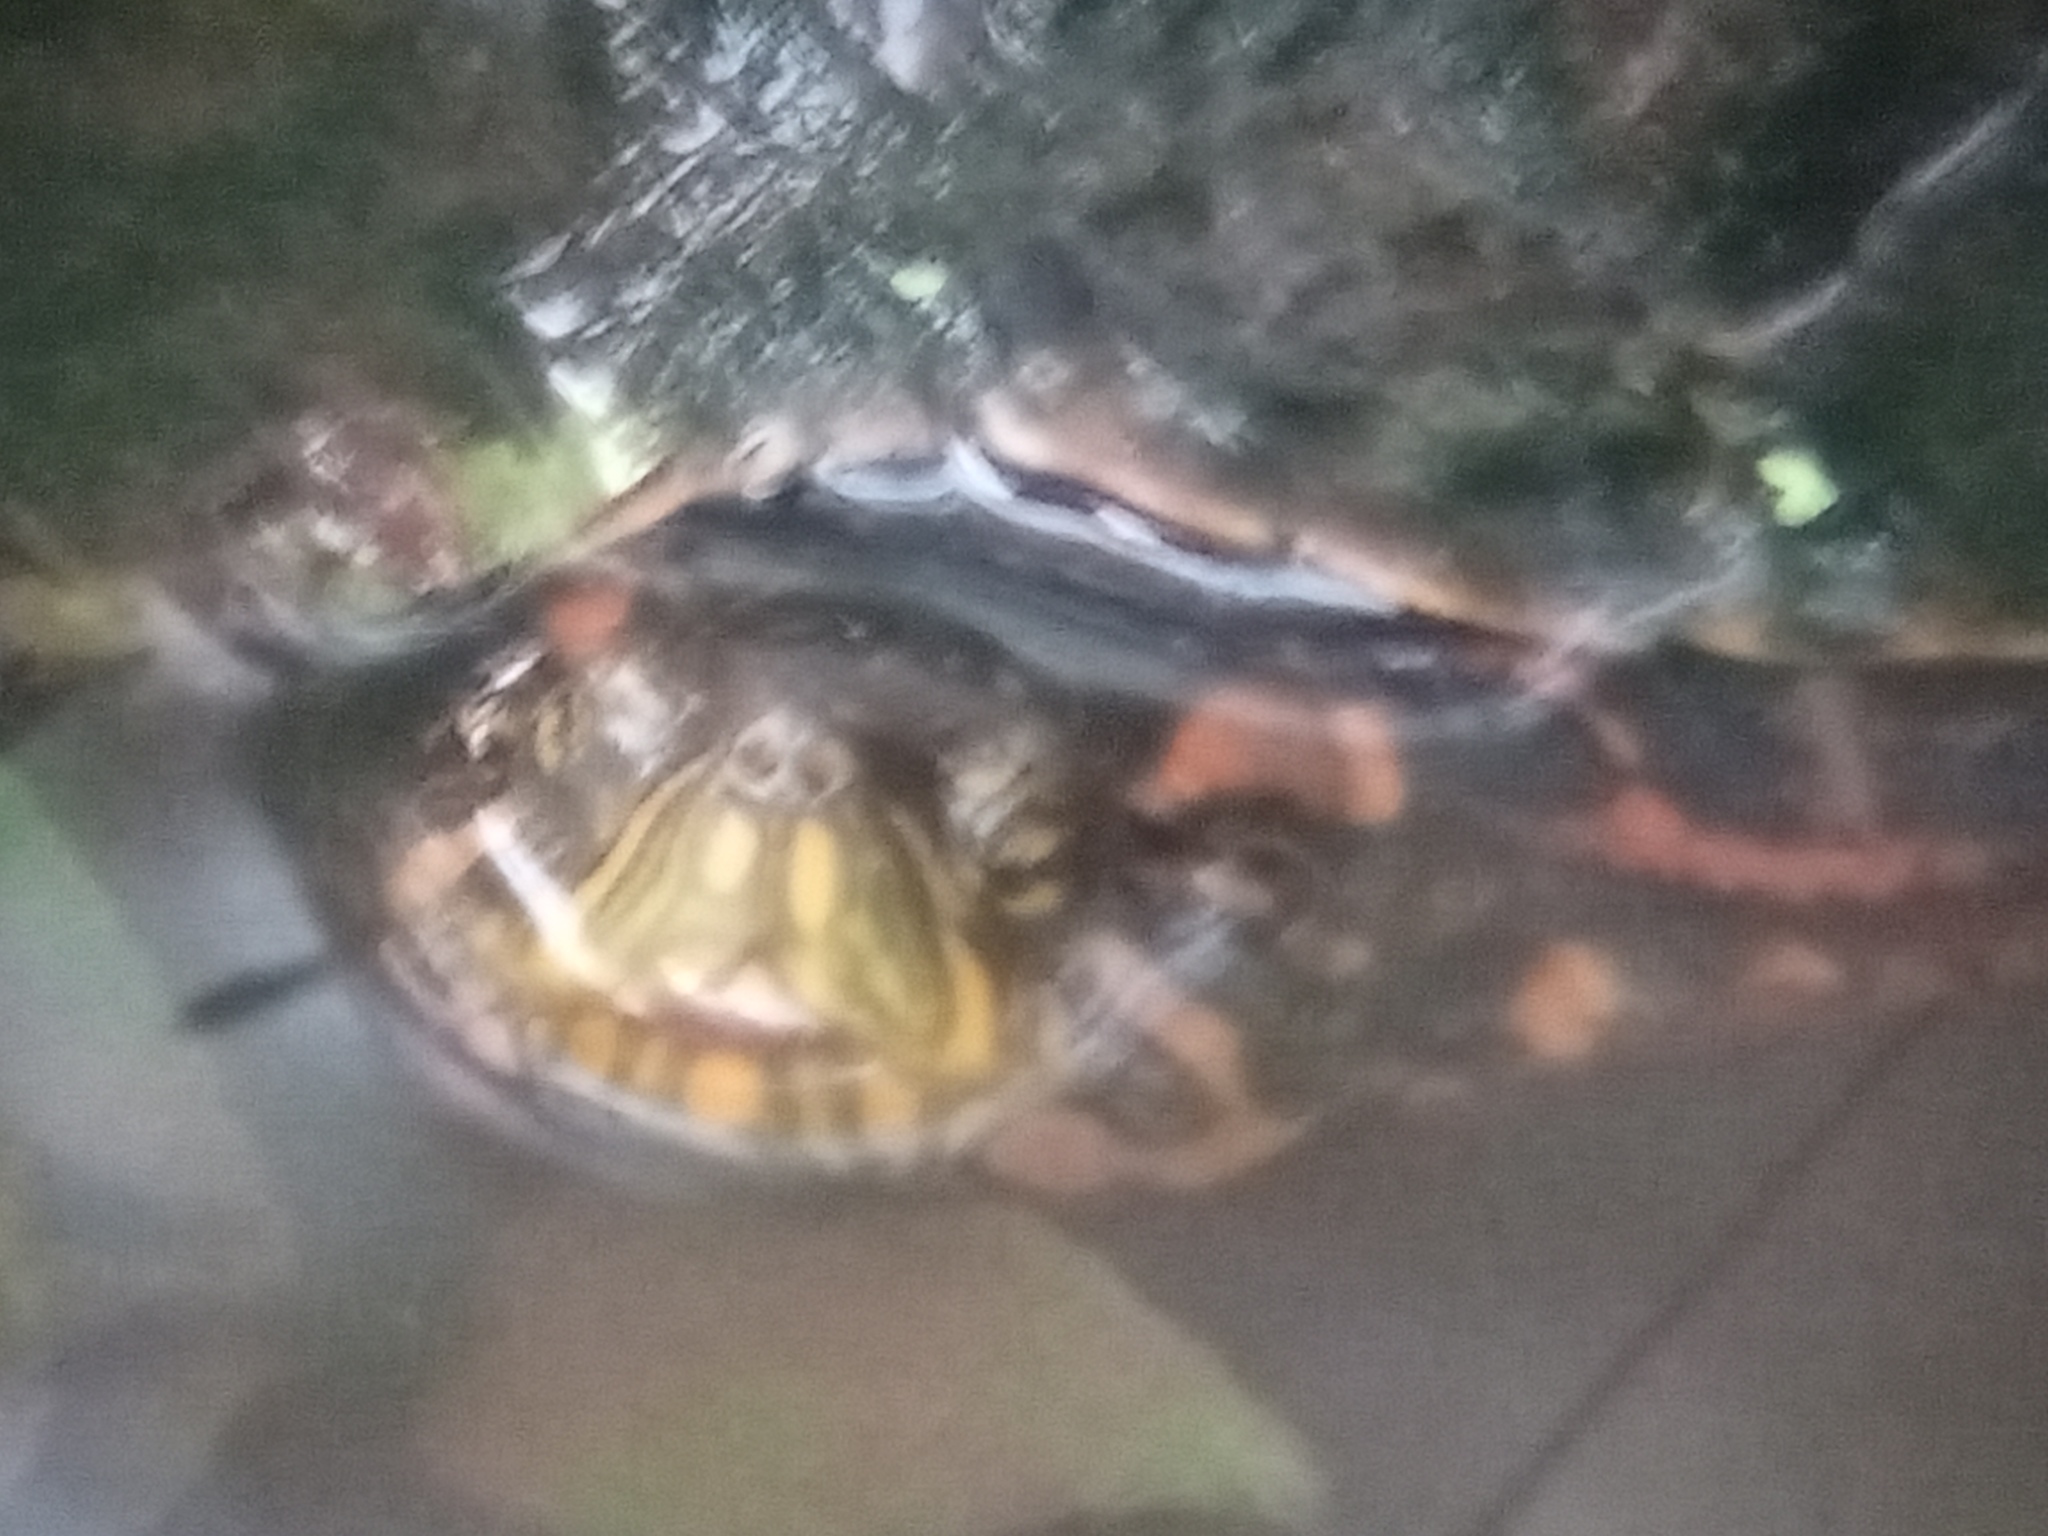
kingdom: Animalia
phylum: Chordata
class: Testudines
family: Emydidae
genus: Trachemys
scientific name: Trachemys dorbigni
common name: Black-bellied slider
